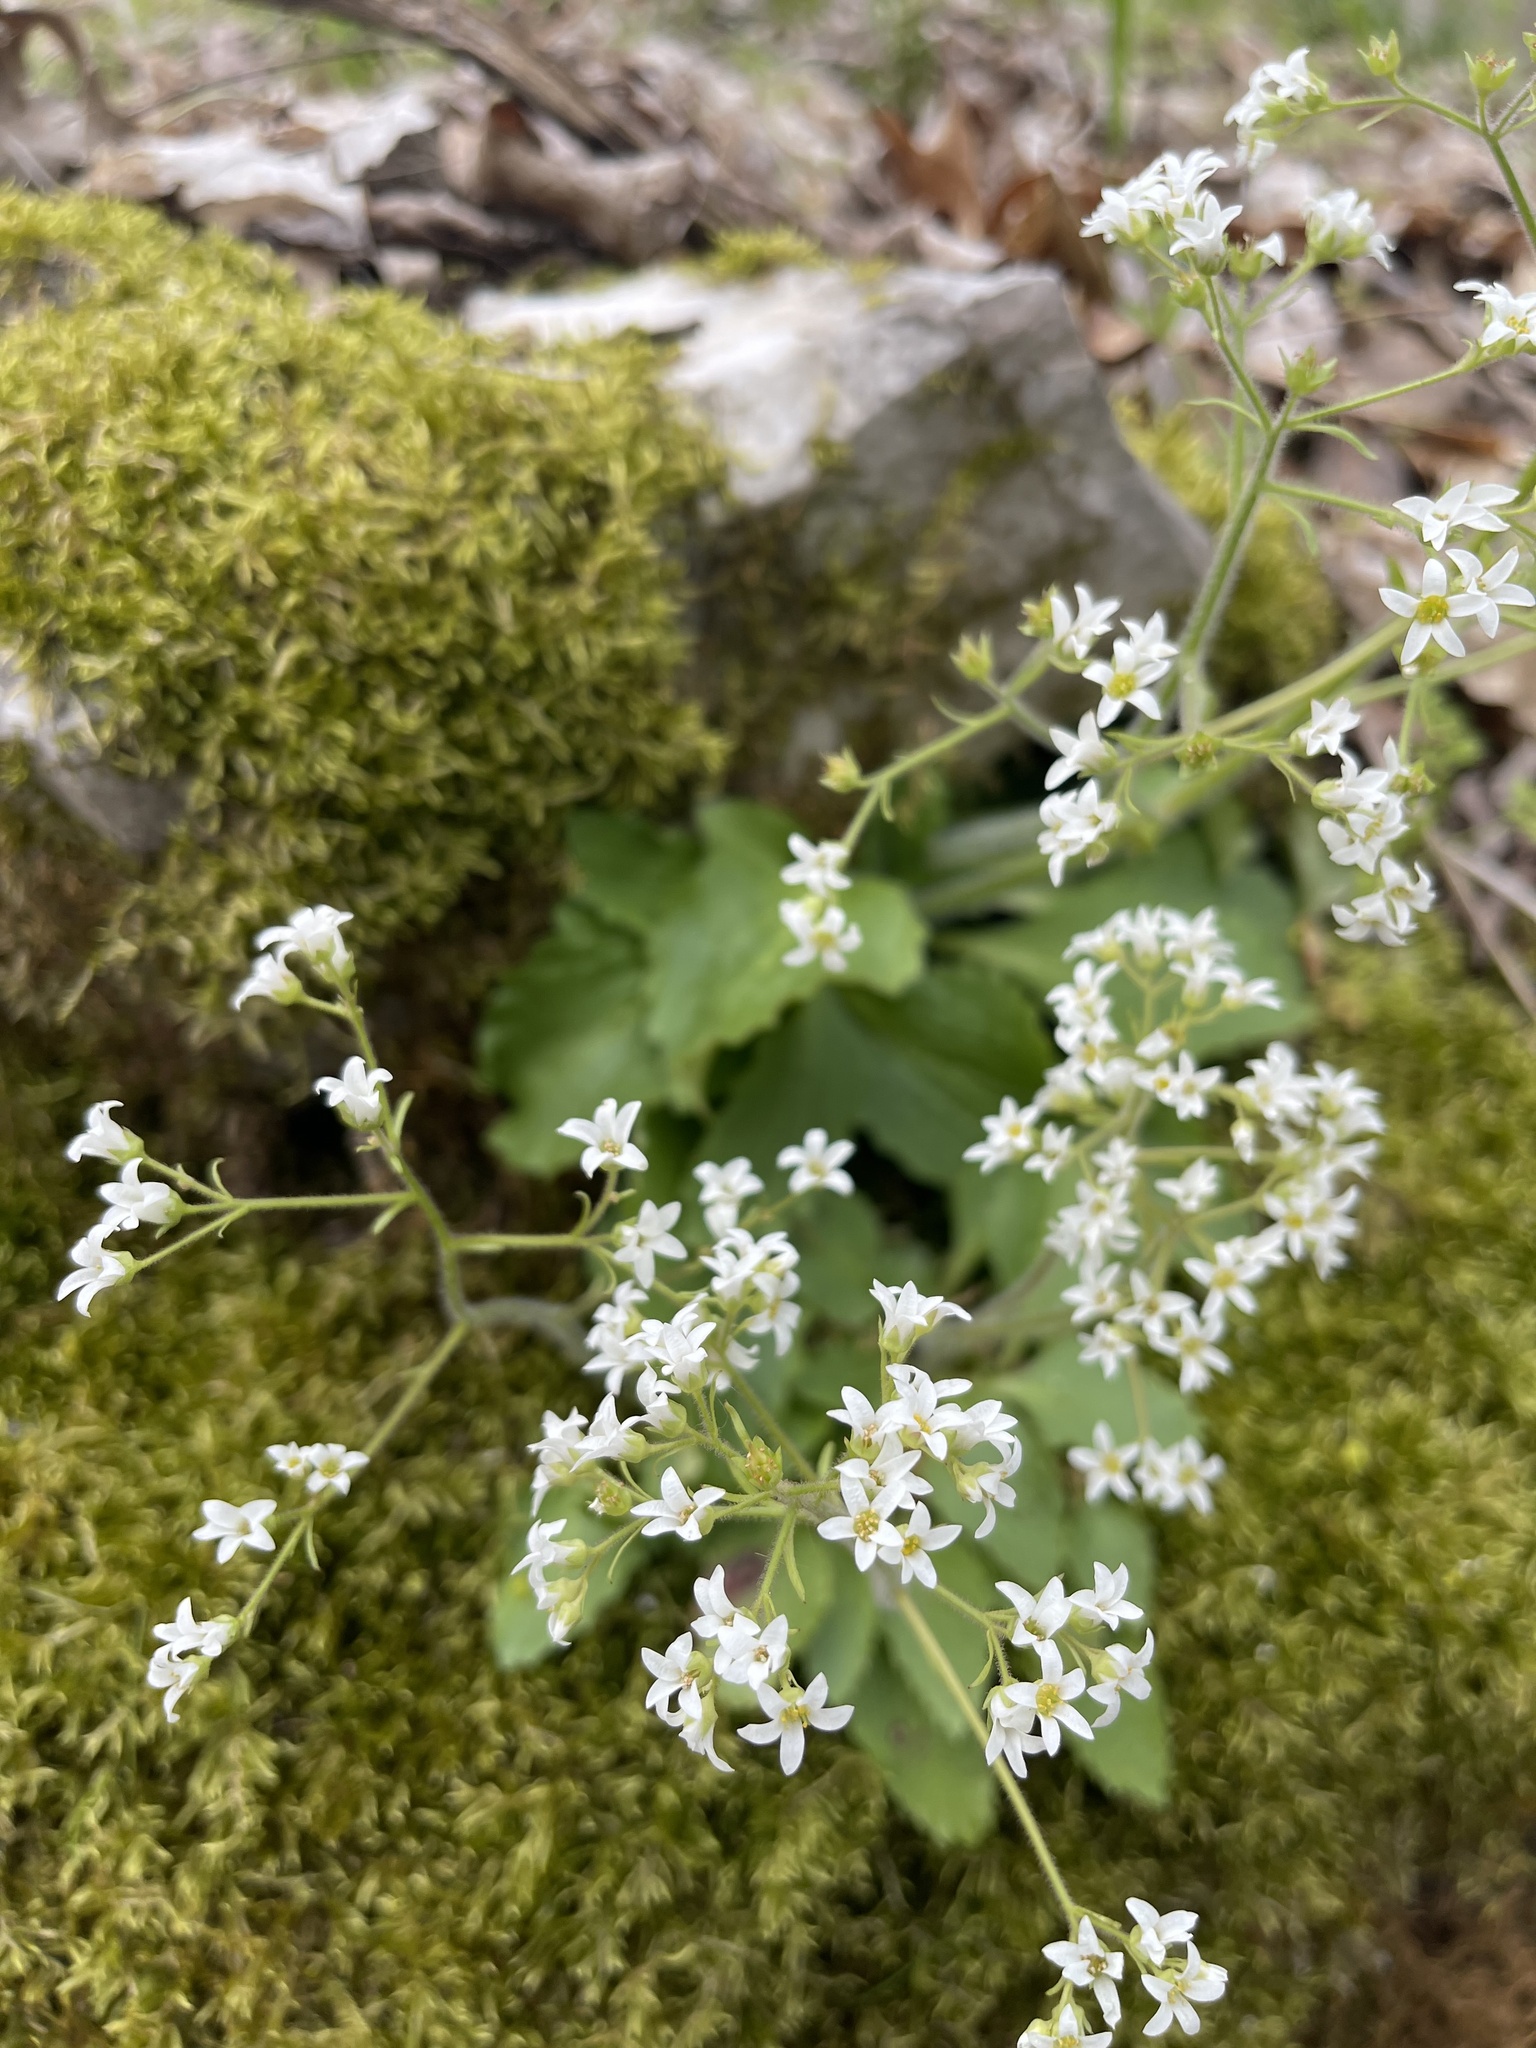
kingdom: Plantae
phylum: Tracheophyta
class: Magnoliopsida
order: Saxifragales
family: Saxifragaceae
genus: Micranthes
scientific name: Micranthes virginiensis
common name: Early saxifrage
